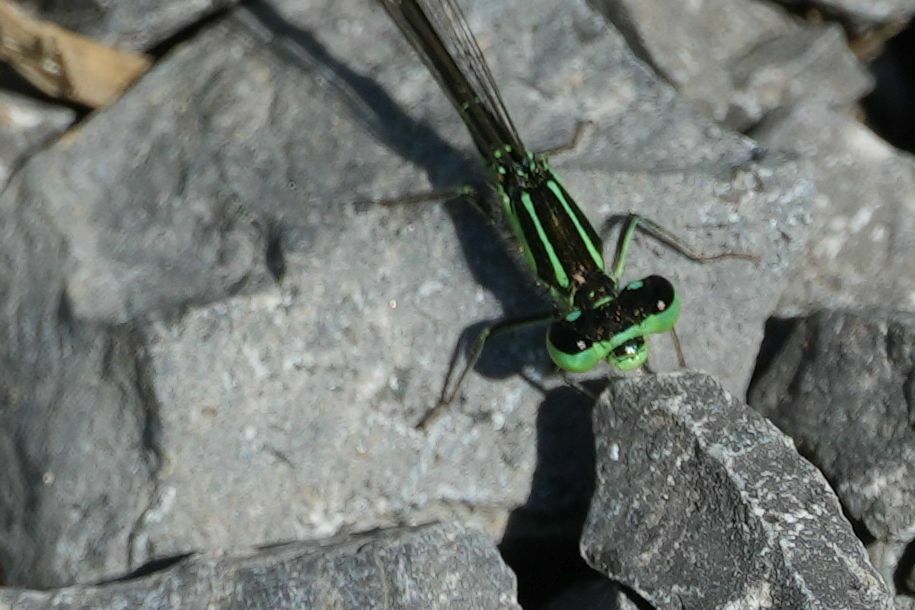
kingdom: Animalia
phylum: Arthropoda
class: Insecta
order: Odonata
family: Coenagrionidae
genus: Ischnura
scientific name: Ischnura verticalis
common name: Eastern forktail
